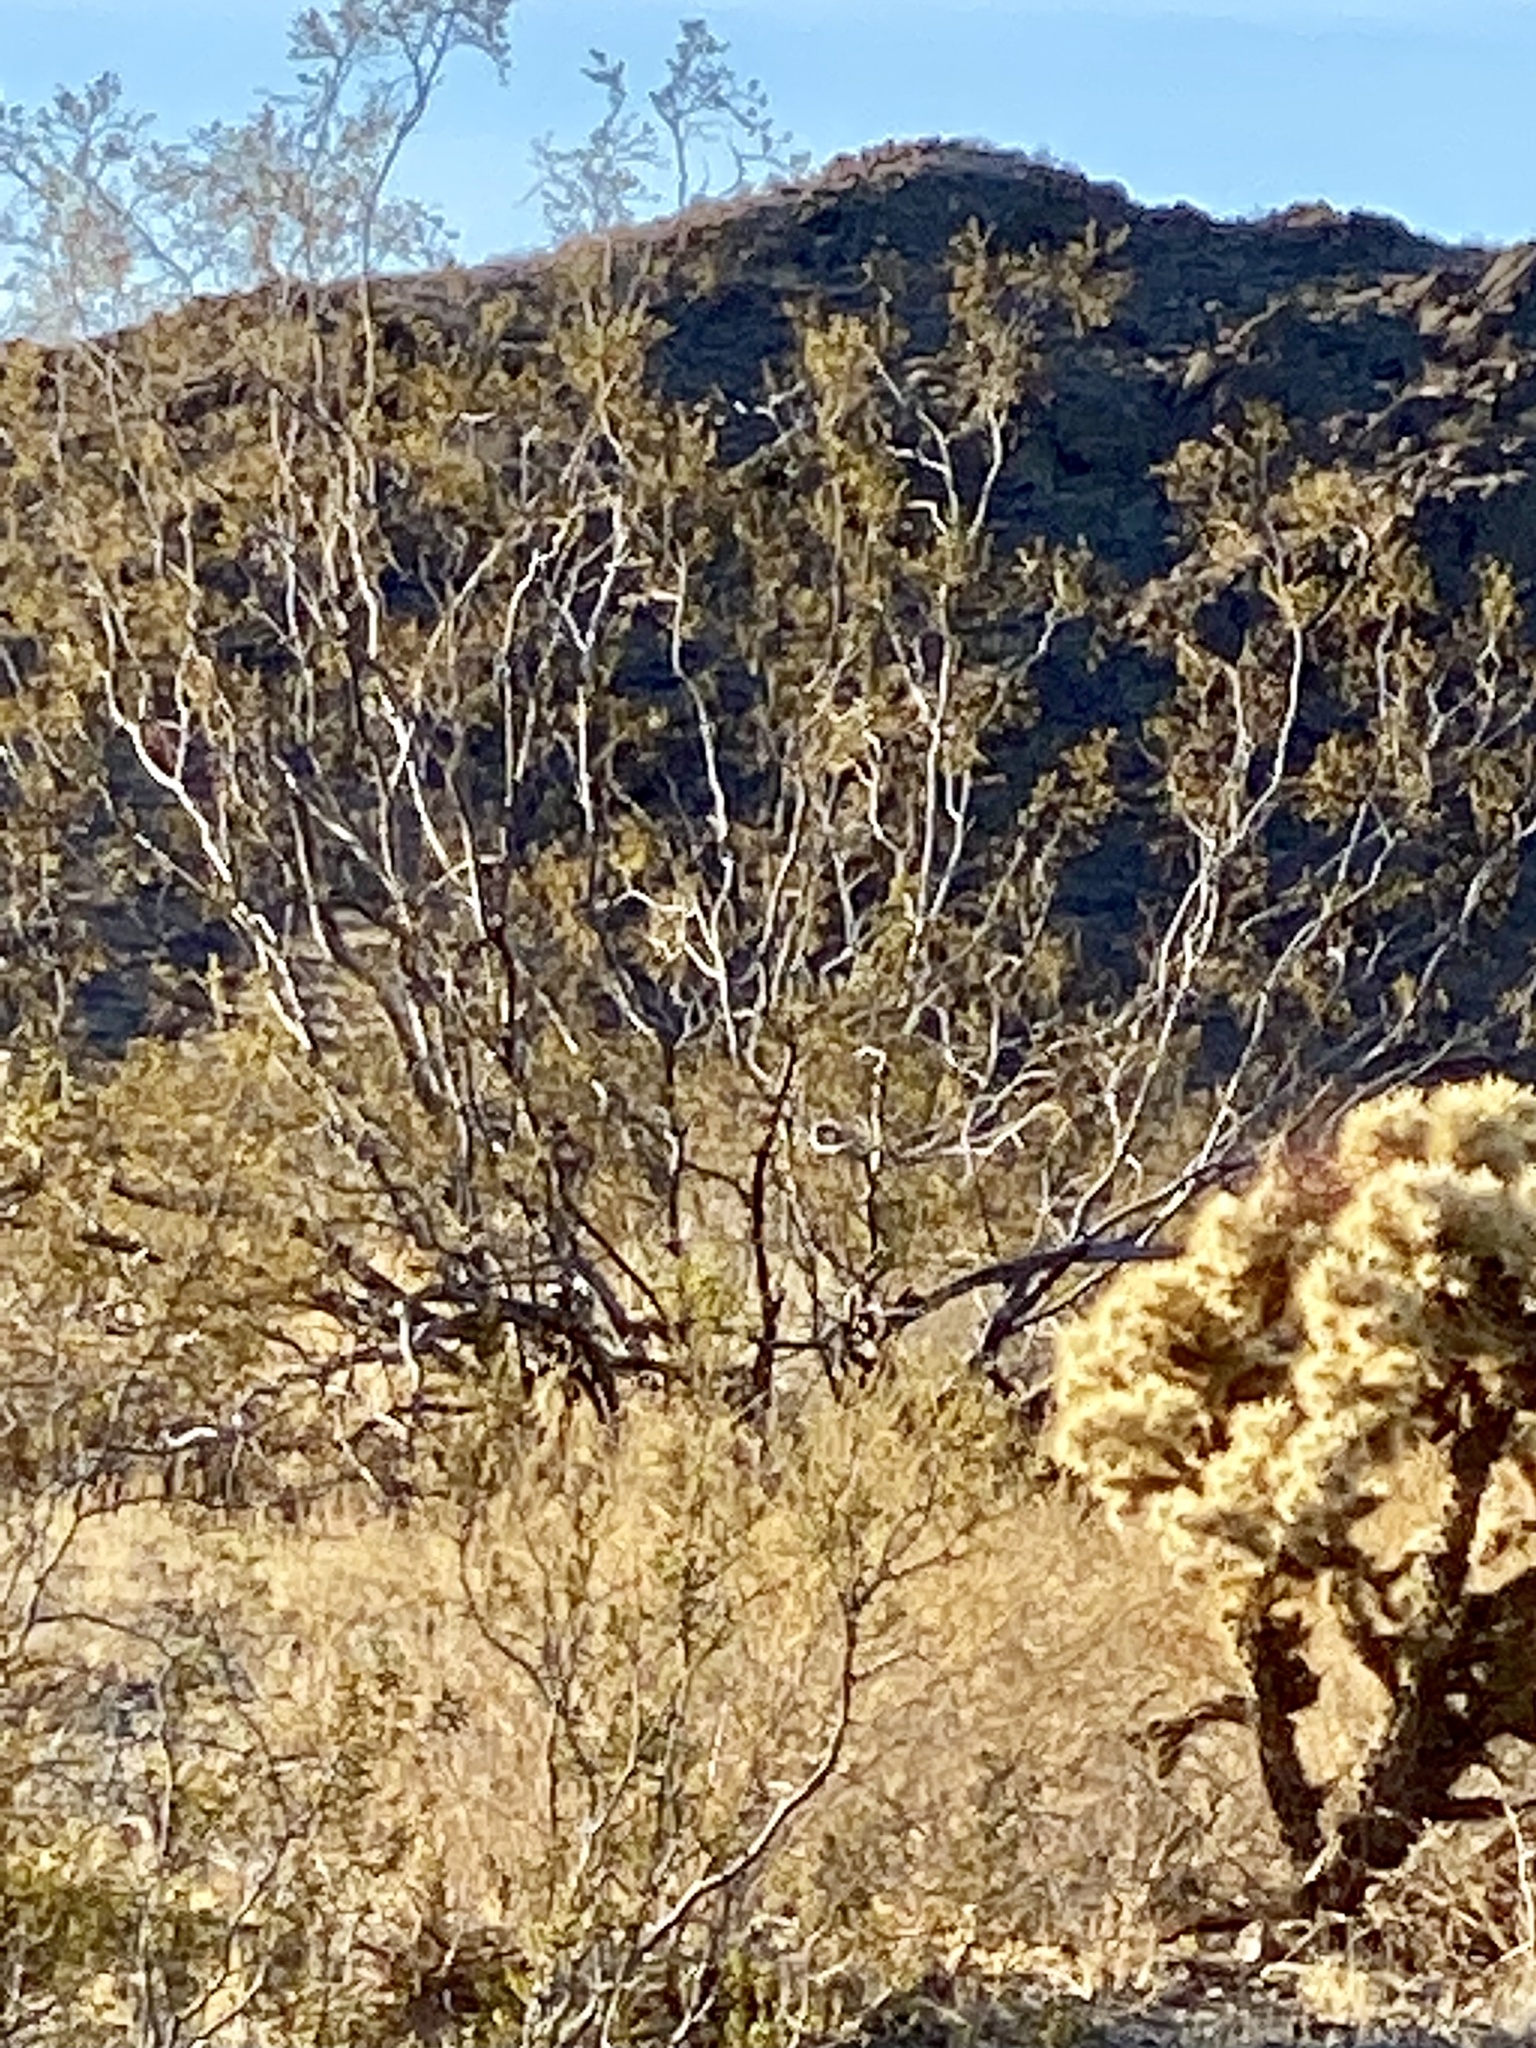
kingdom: Plantae
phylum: Tracheophyta
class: Magnoliopsida
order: Zygophyllales
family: Zygophyllaceae
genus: Larrea
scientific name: Larrea tridentata
